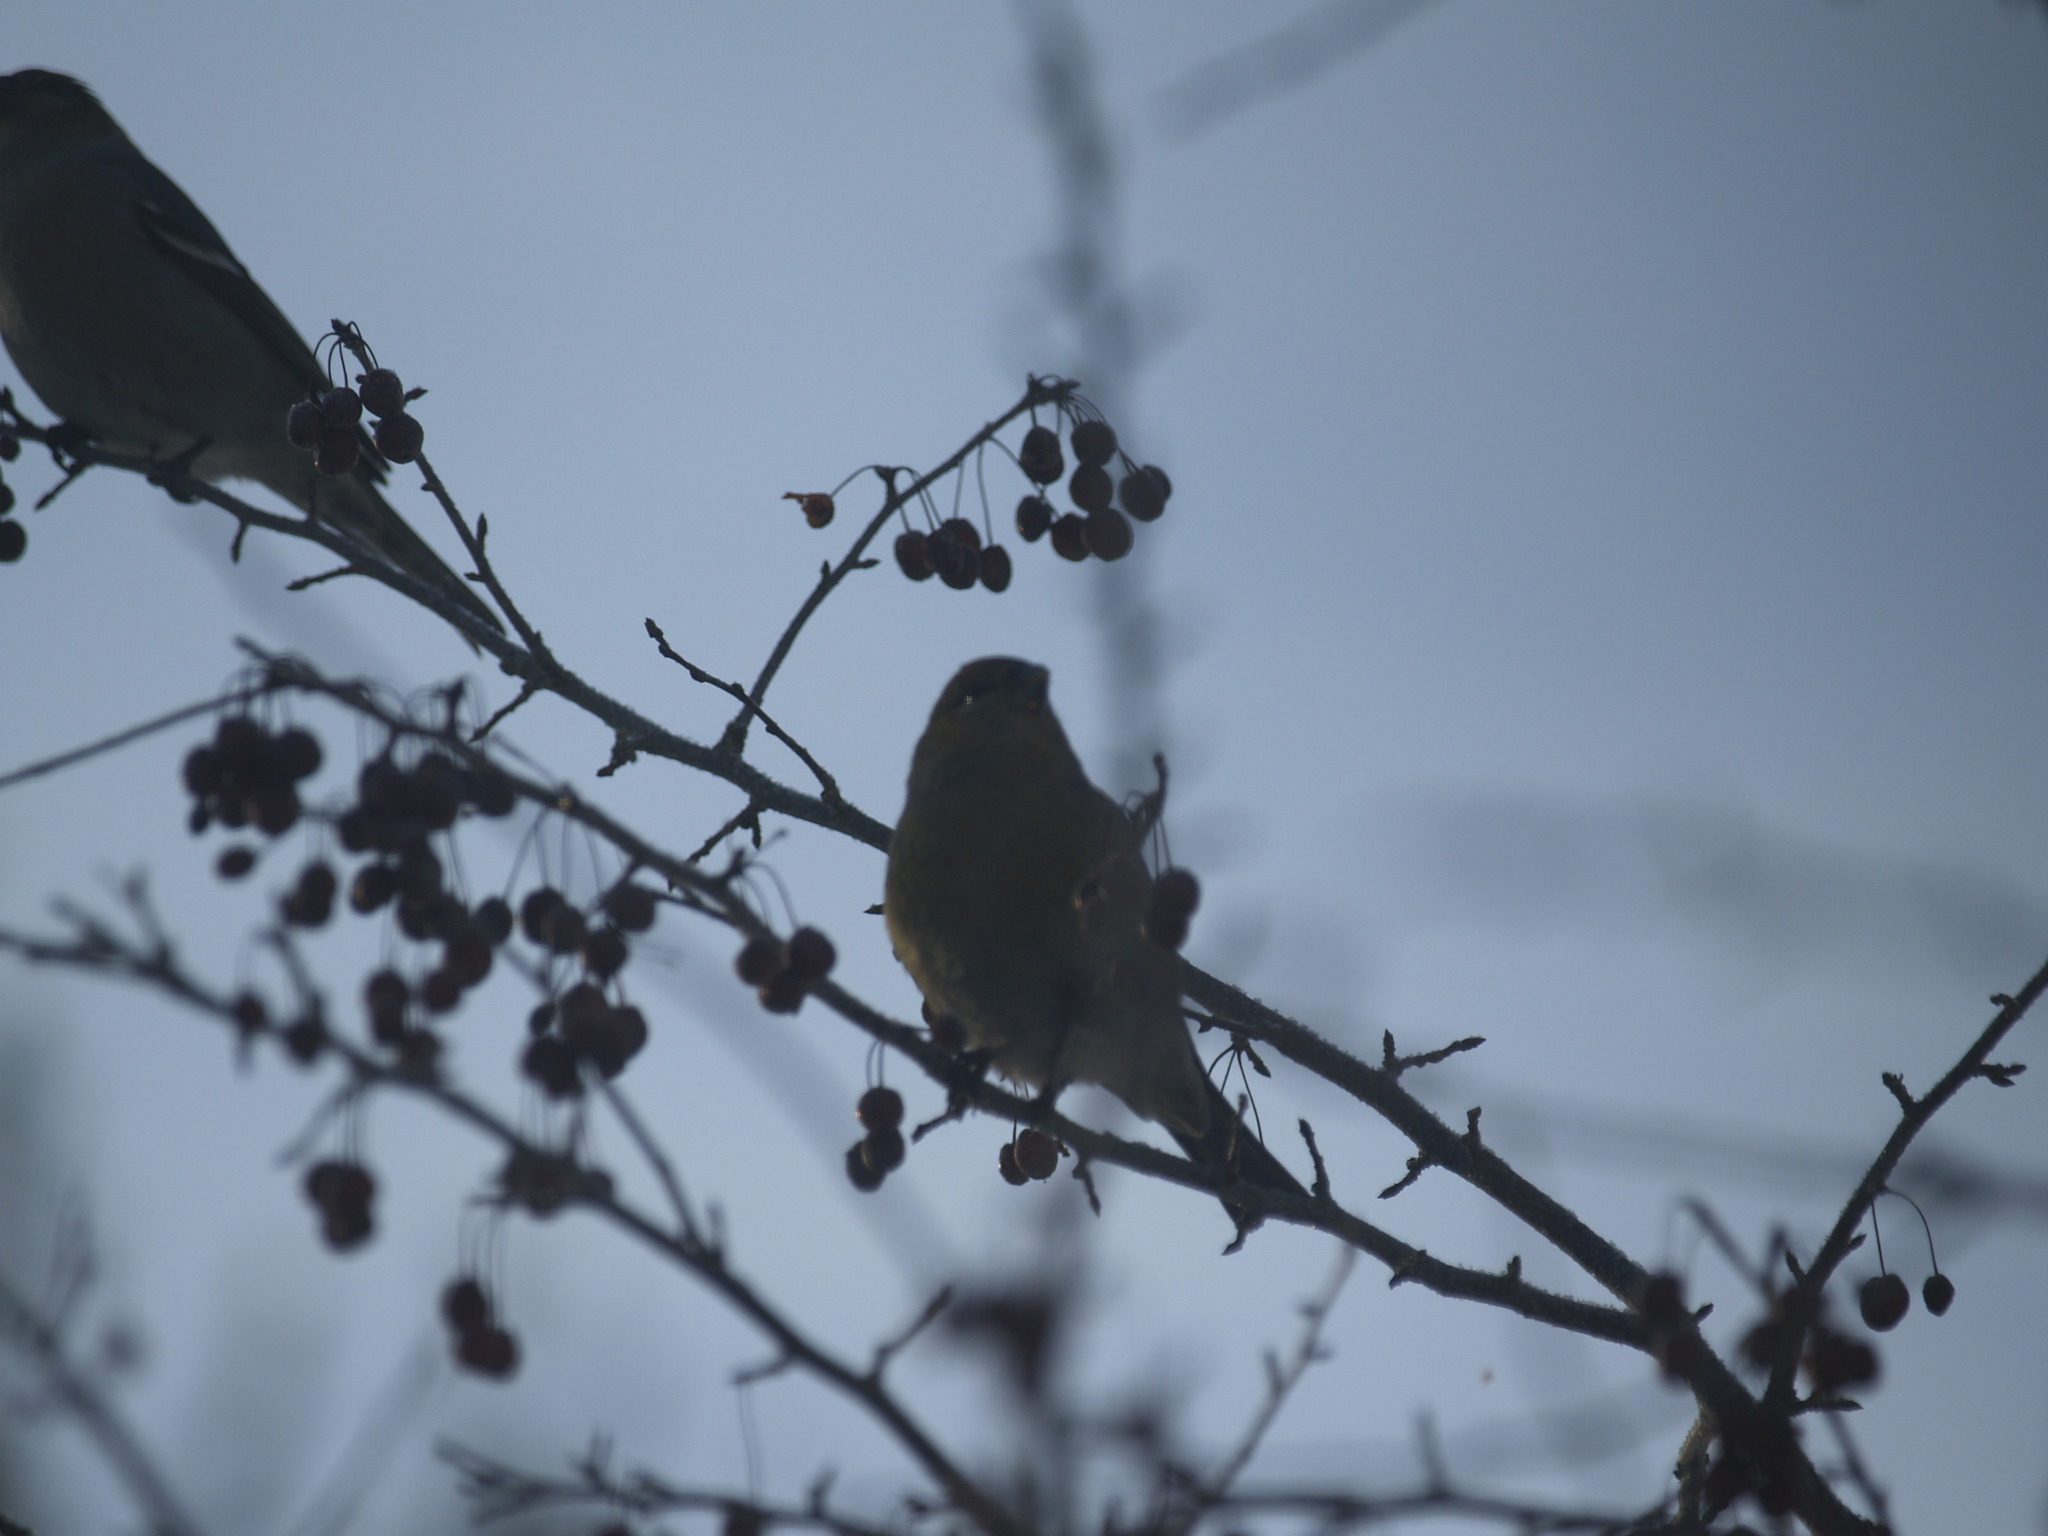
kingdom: Animalia
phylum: Chordata
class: Aves
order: Passeriformes
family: Fringillidae
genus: Pinicola
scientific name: Pinicola enucleator
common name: Pine grosbeak
